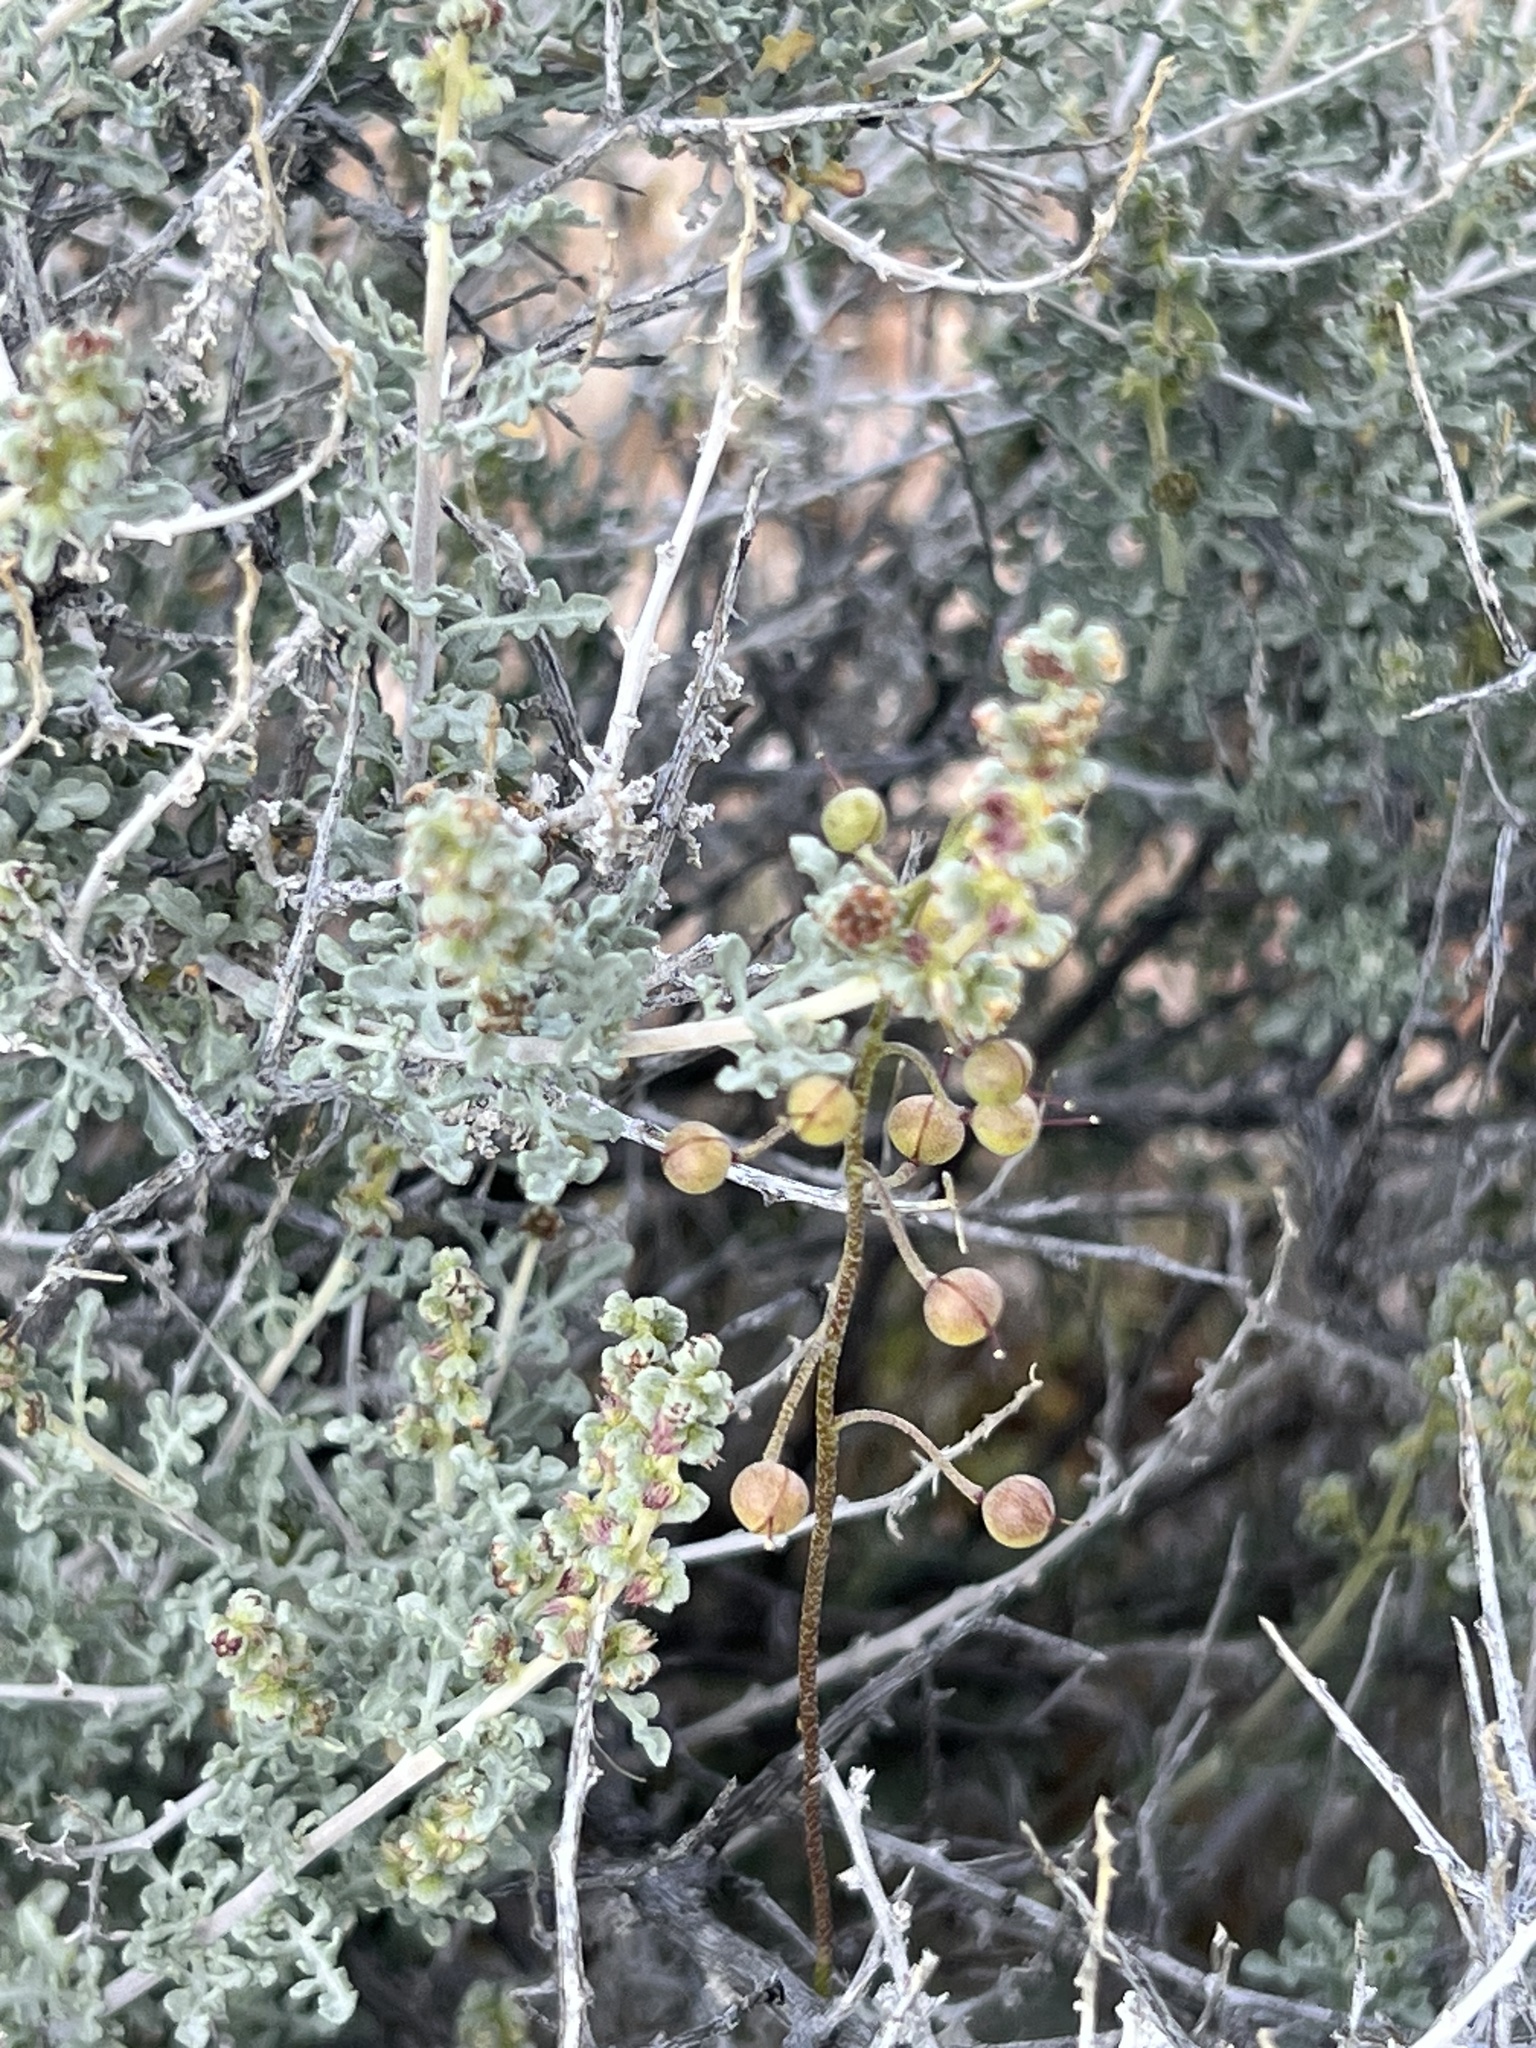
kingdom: Plantae
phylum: Tracheophyta
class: Magnoliopsida
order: Asterales
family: Asteraceae
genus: Ambrosia
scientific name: Ambrosia dumosa
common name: Bur-sage
